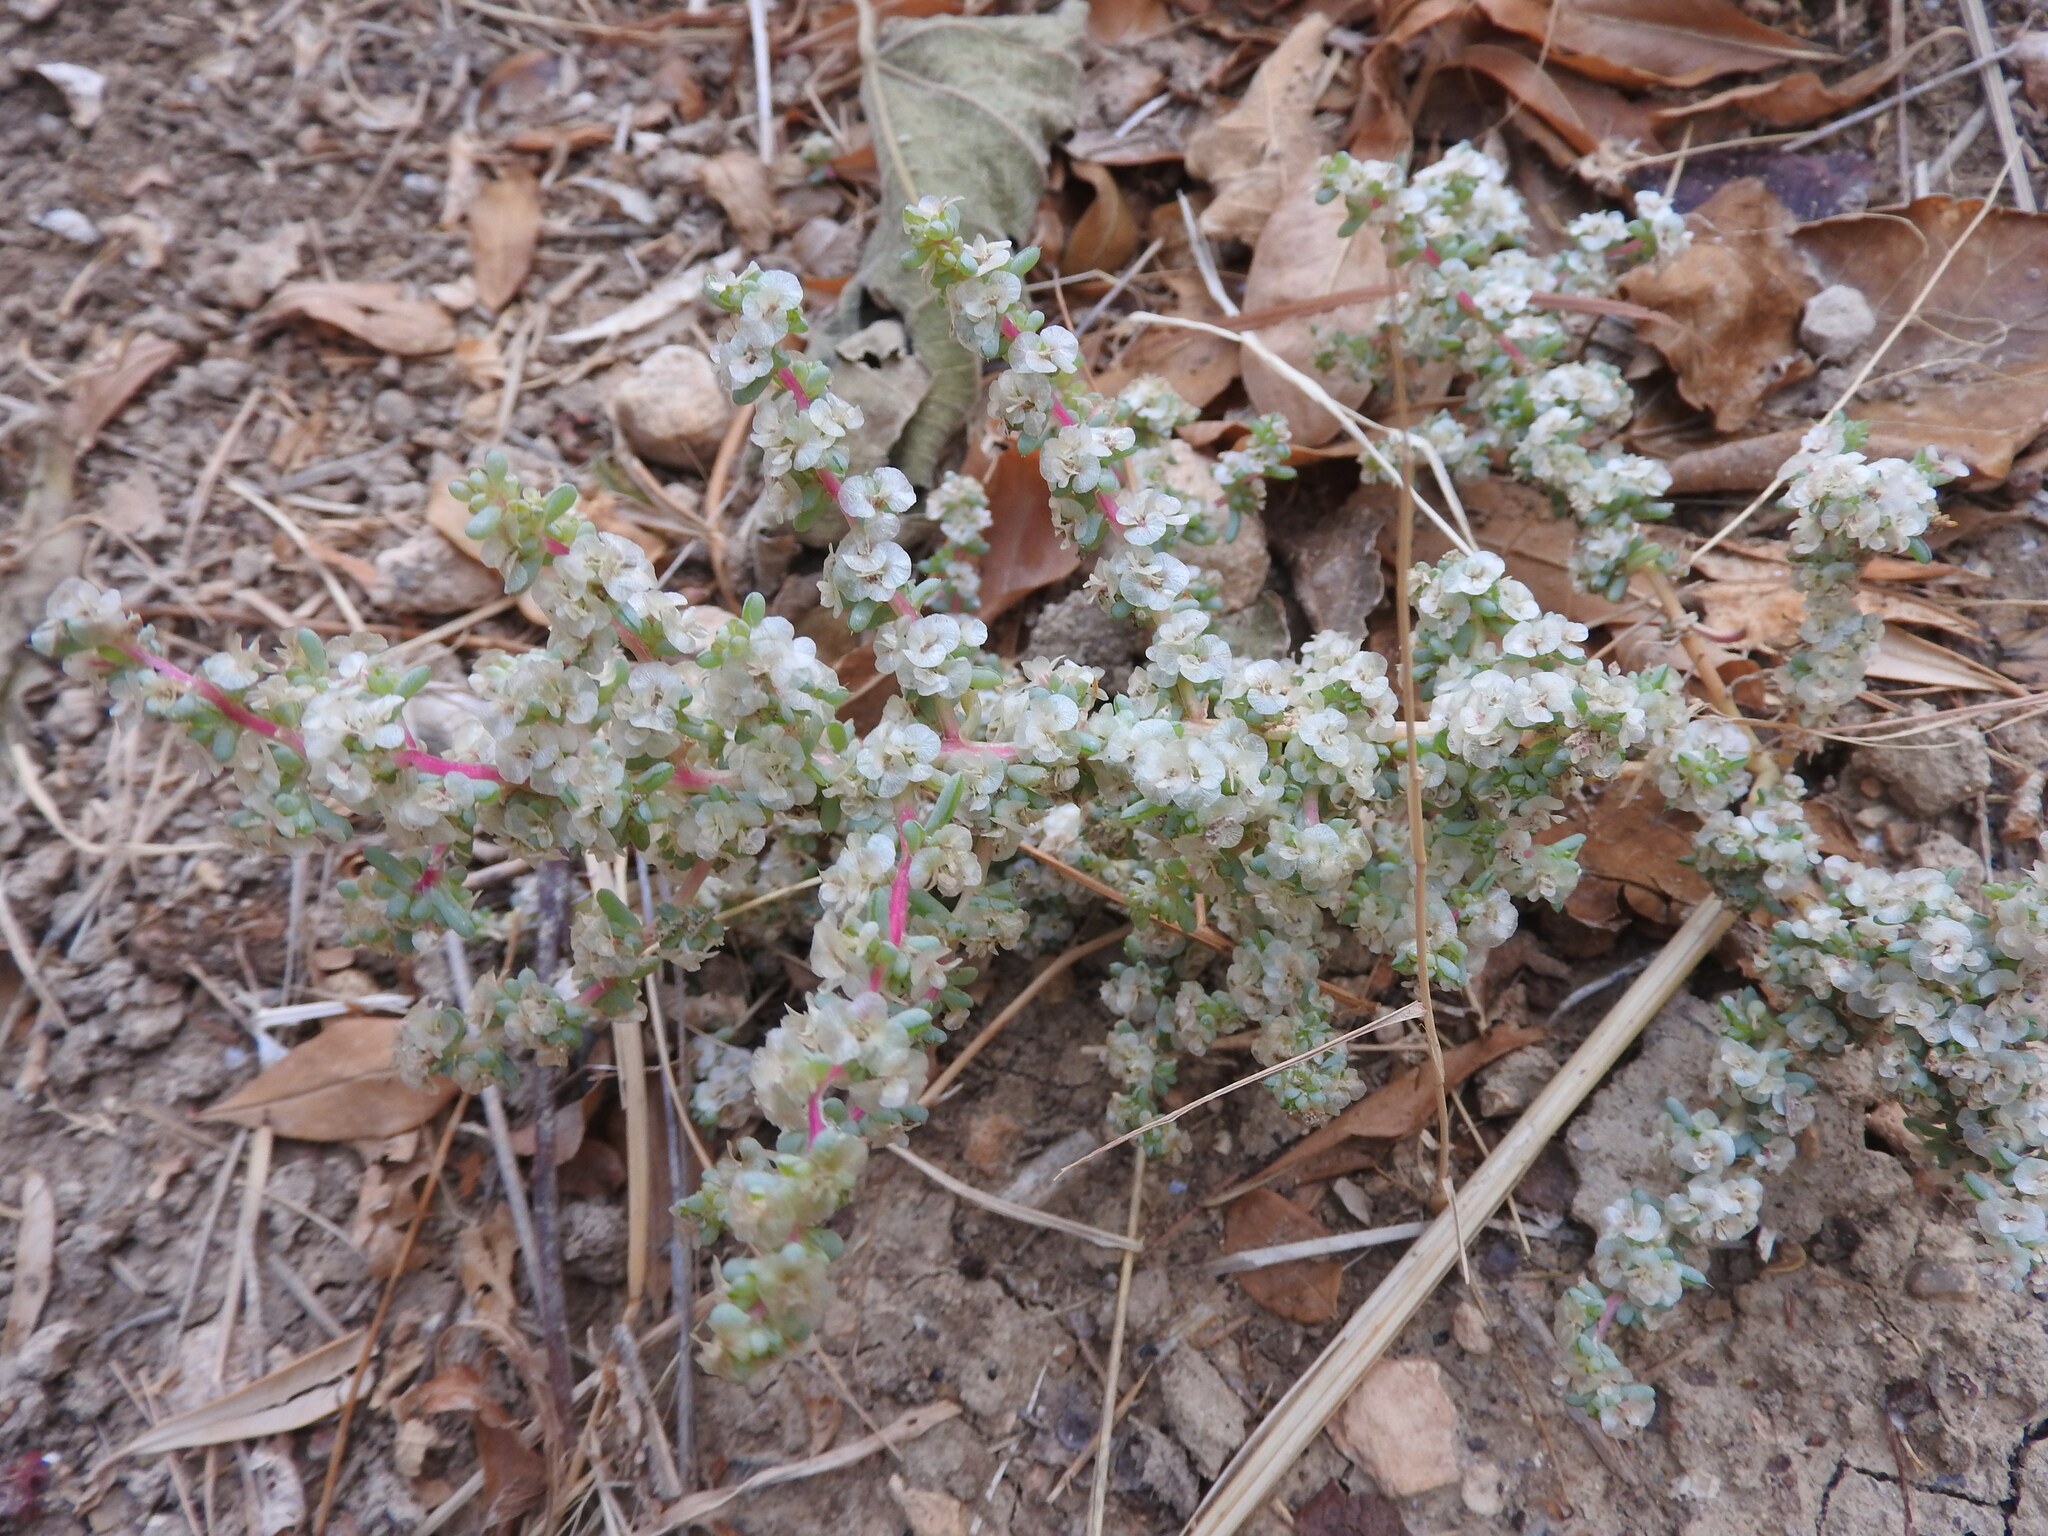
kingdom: Plantae
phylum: Tracheophyta
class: Magnoliopsida
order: Caryophyllales
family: Amaranthaceae
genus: Halogeton
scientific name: Halogeton sativus
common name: Barilla
